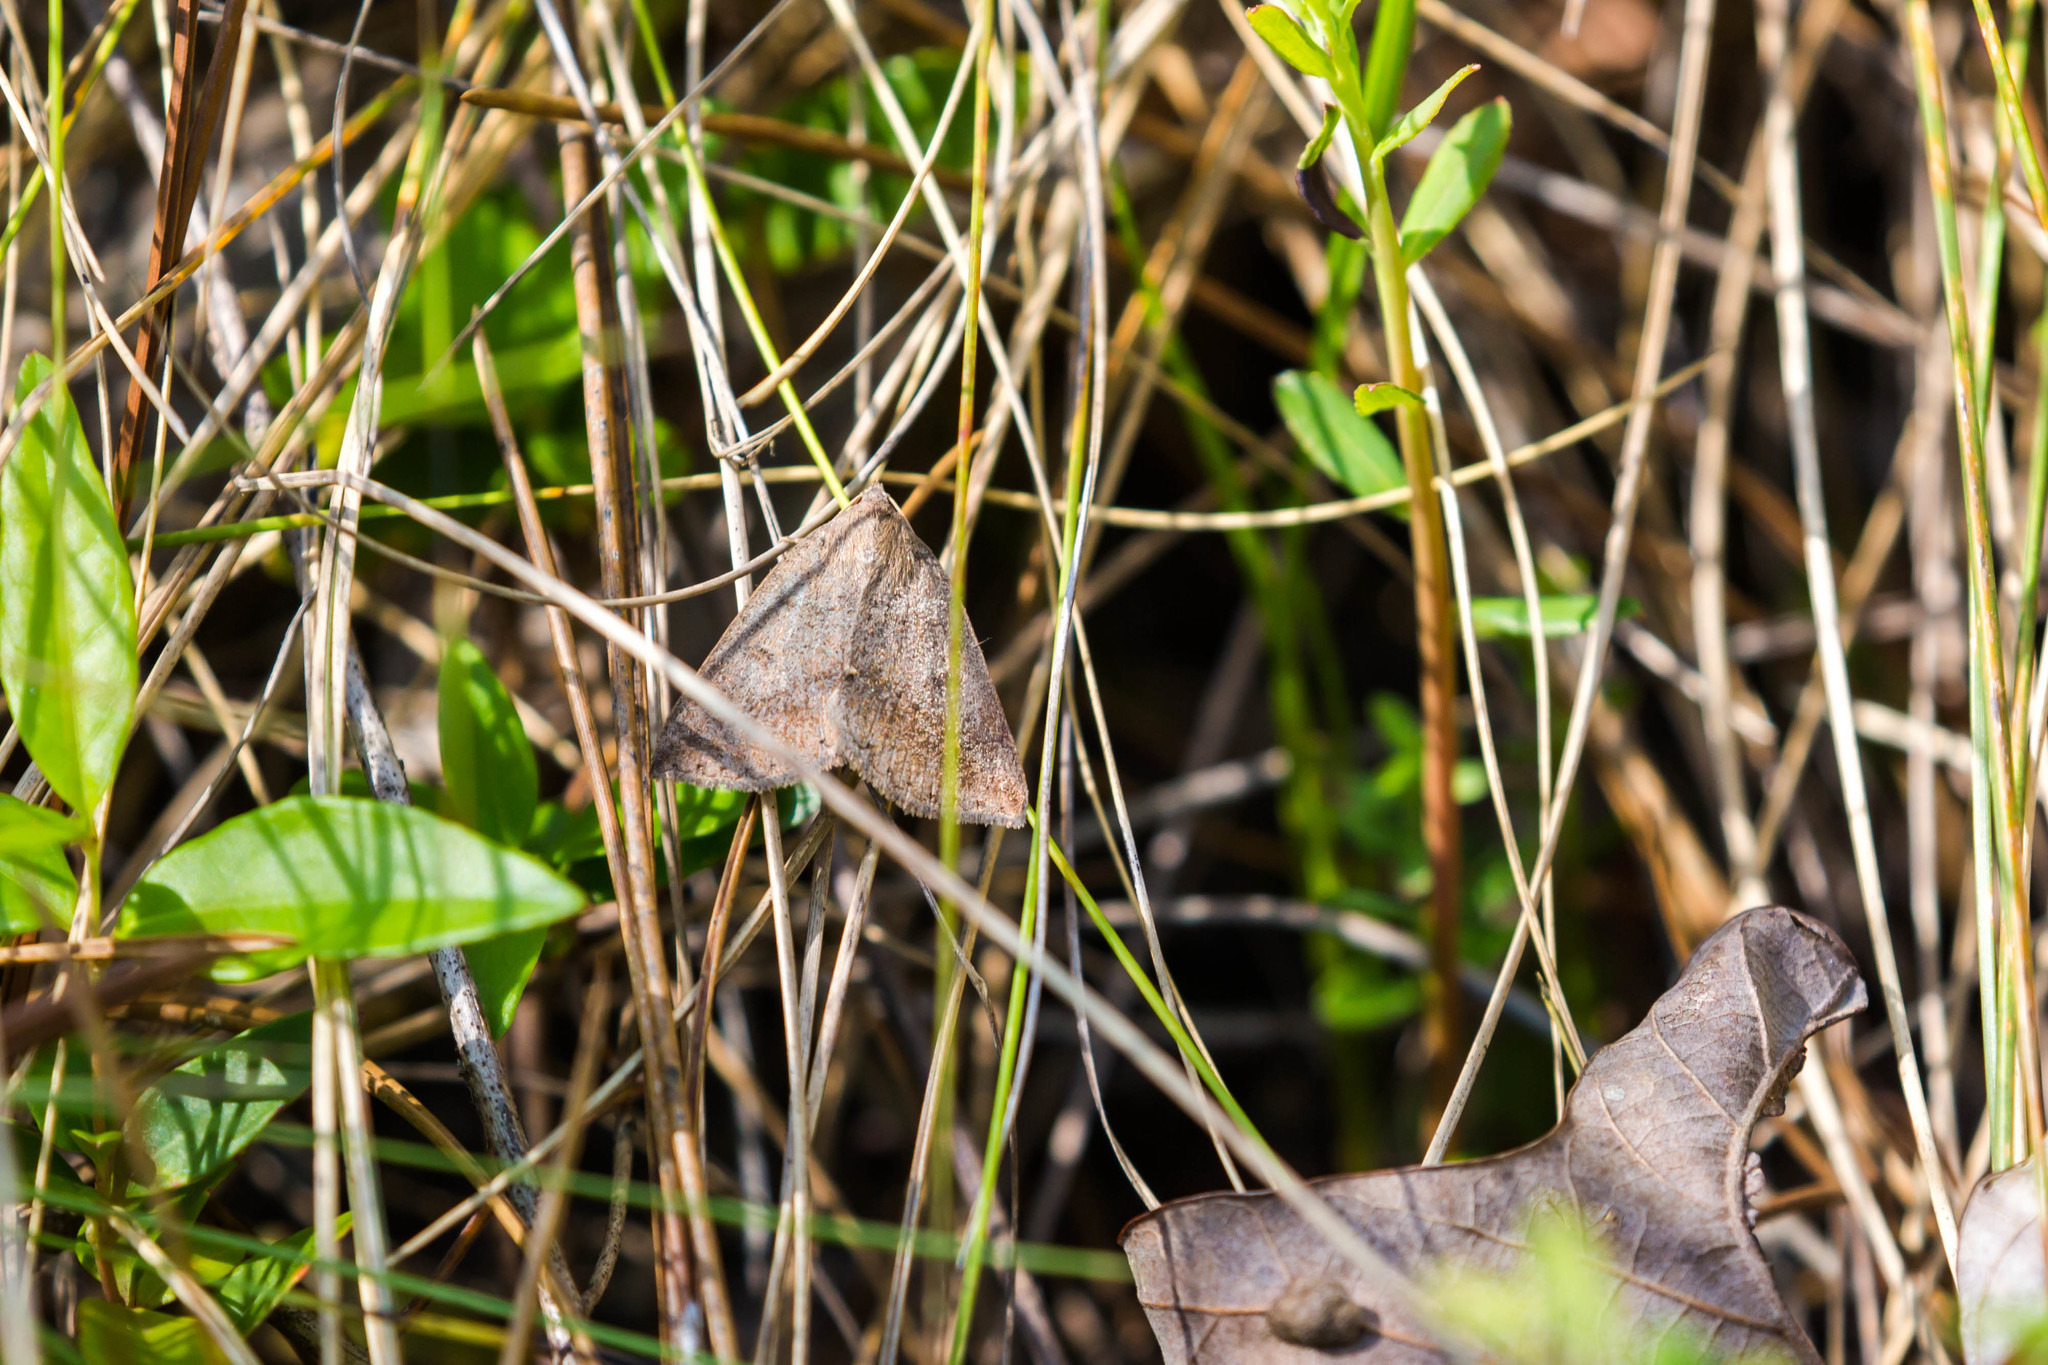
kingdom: Animalia
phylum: Arthropoda
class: Insecta
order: Lepidoptera
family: Erebidae
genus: Argyrostrotis
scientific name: Argyrostrotis flavistriaria
